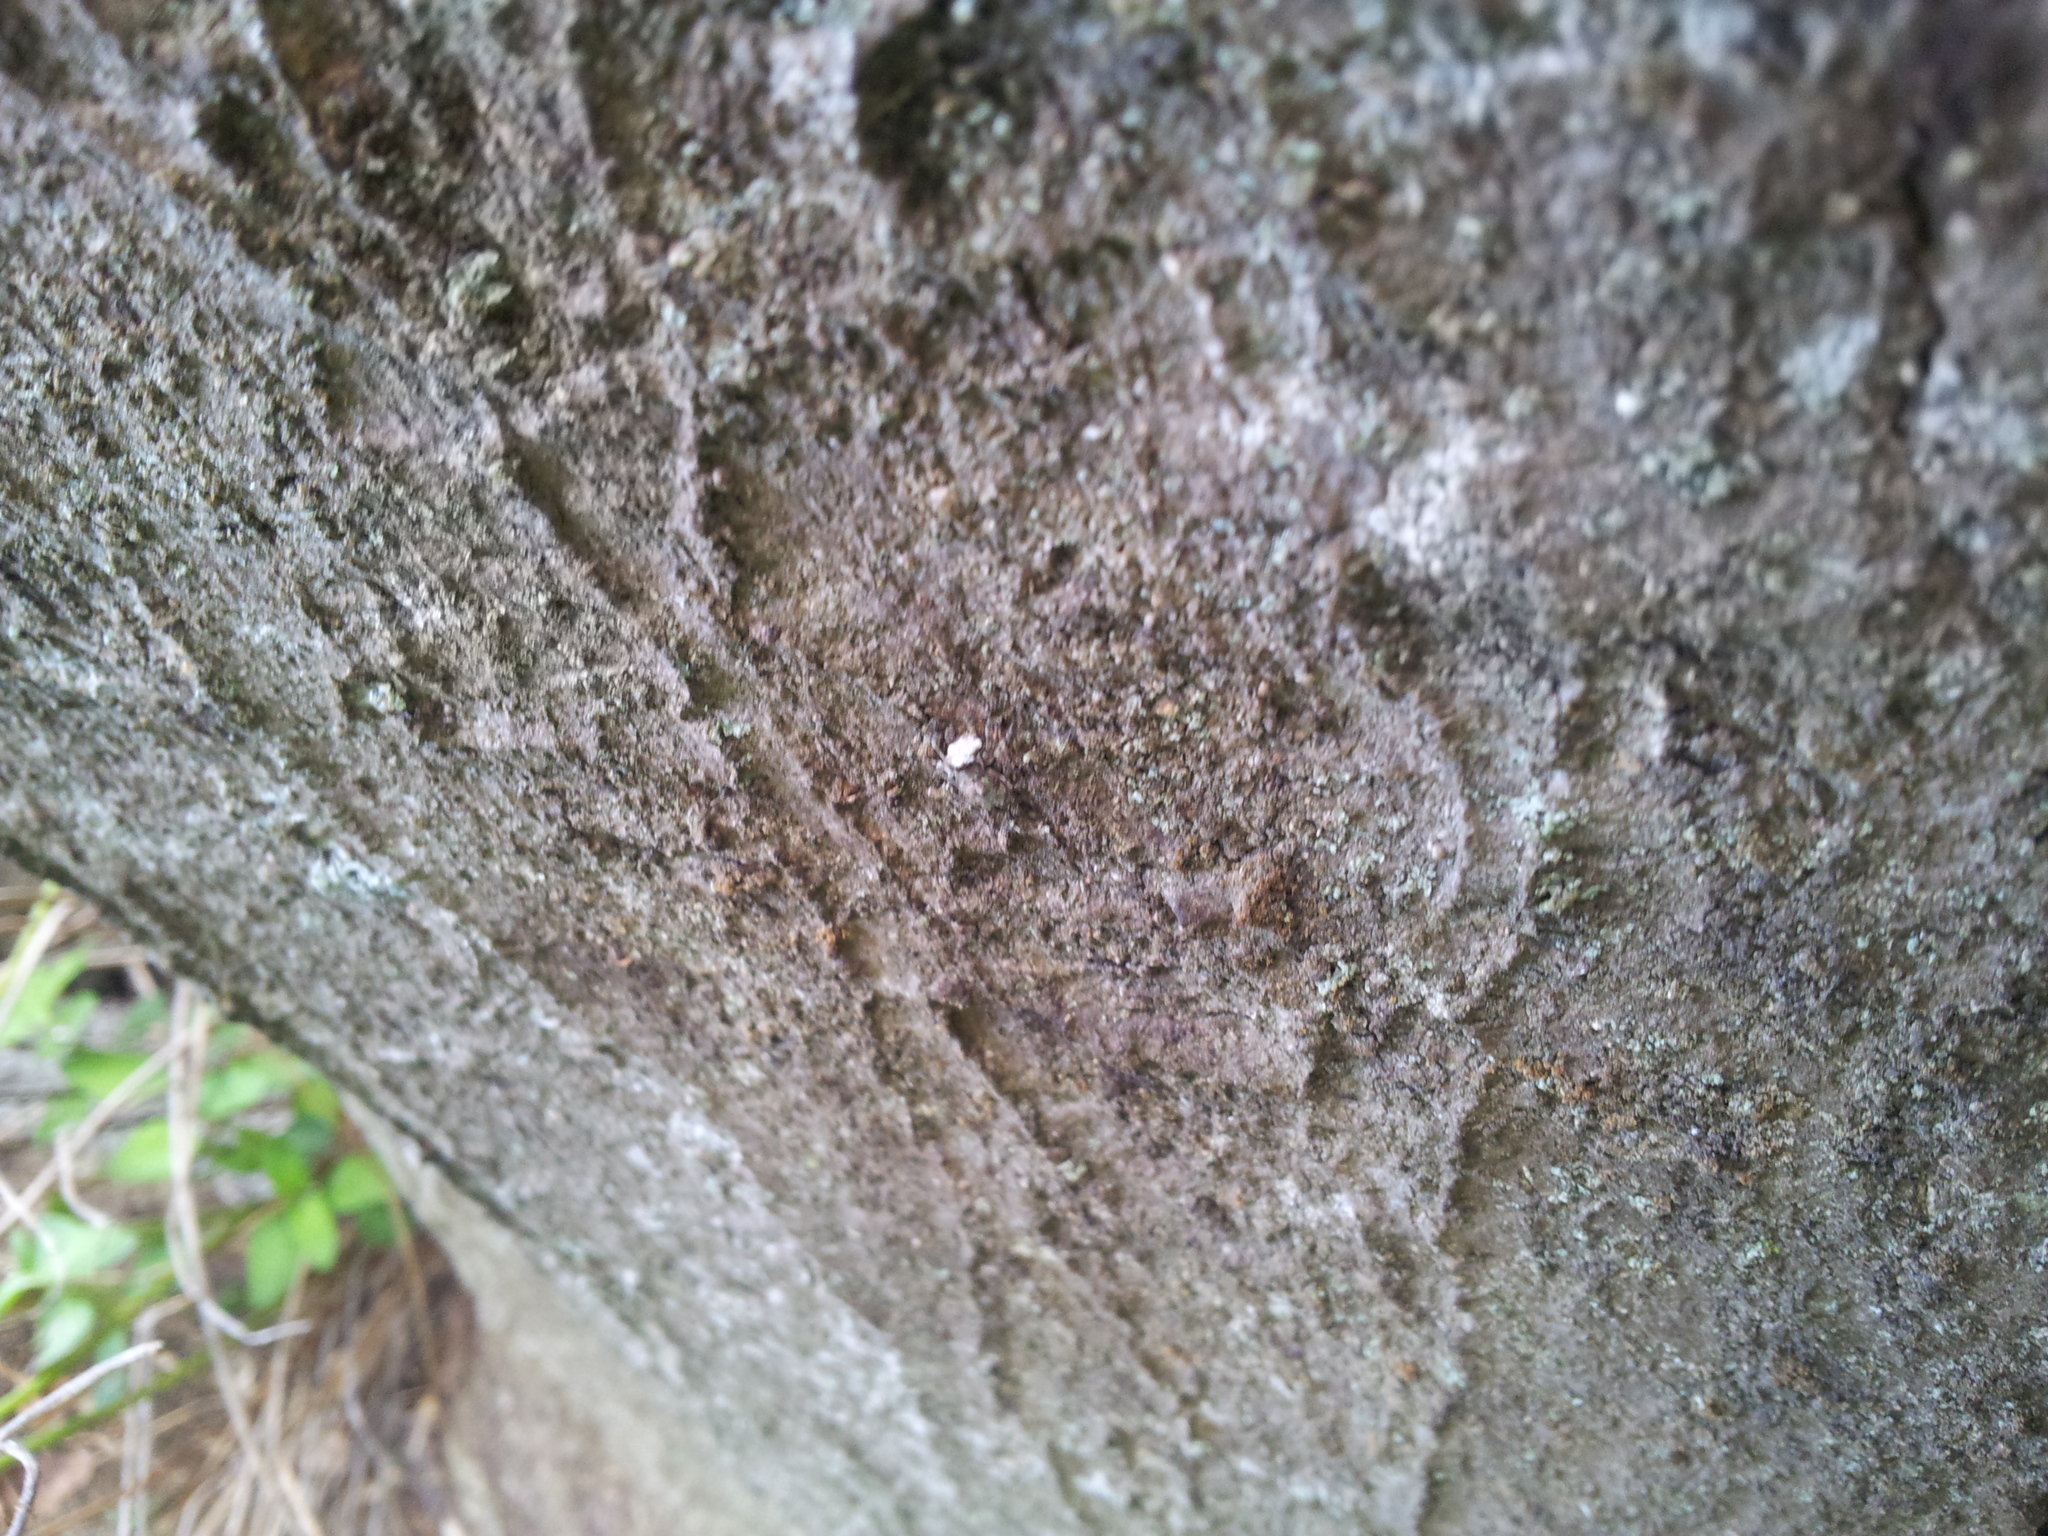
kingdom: Animalia
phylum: Arthropoda
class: Insecta
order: Coleoptera
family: Anthribidae
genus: Hoherius
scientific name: Hoherius
